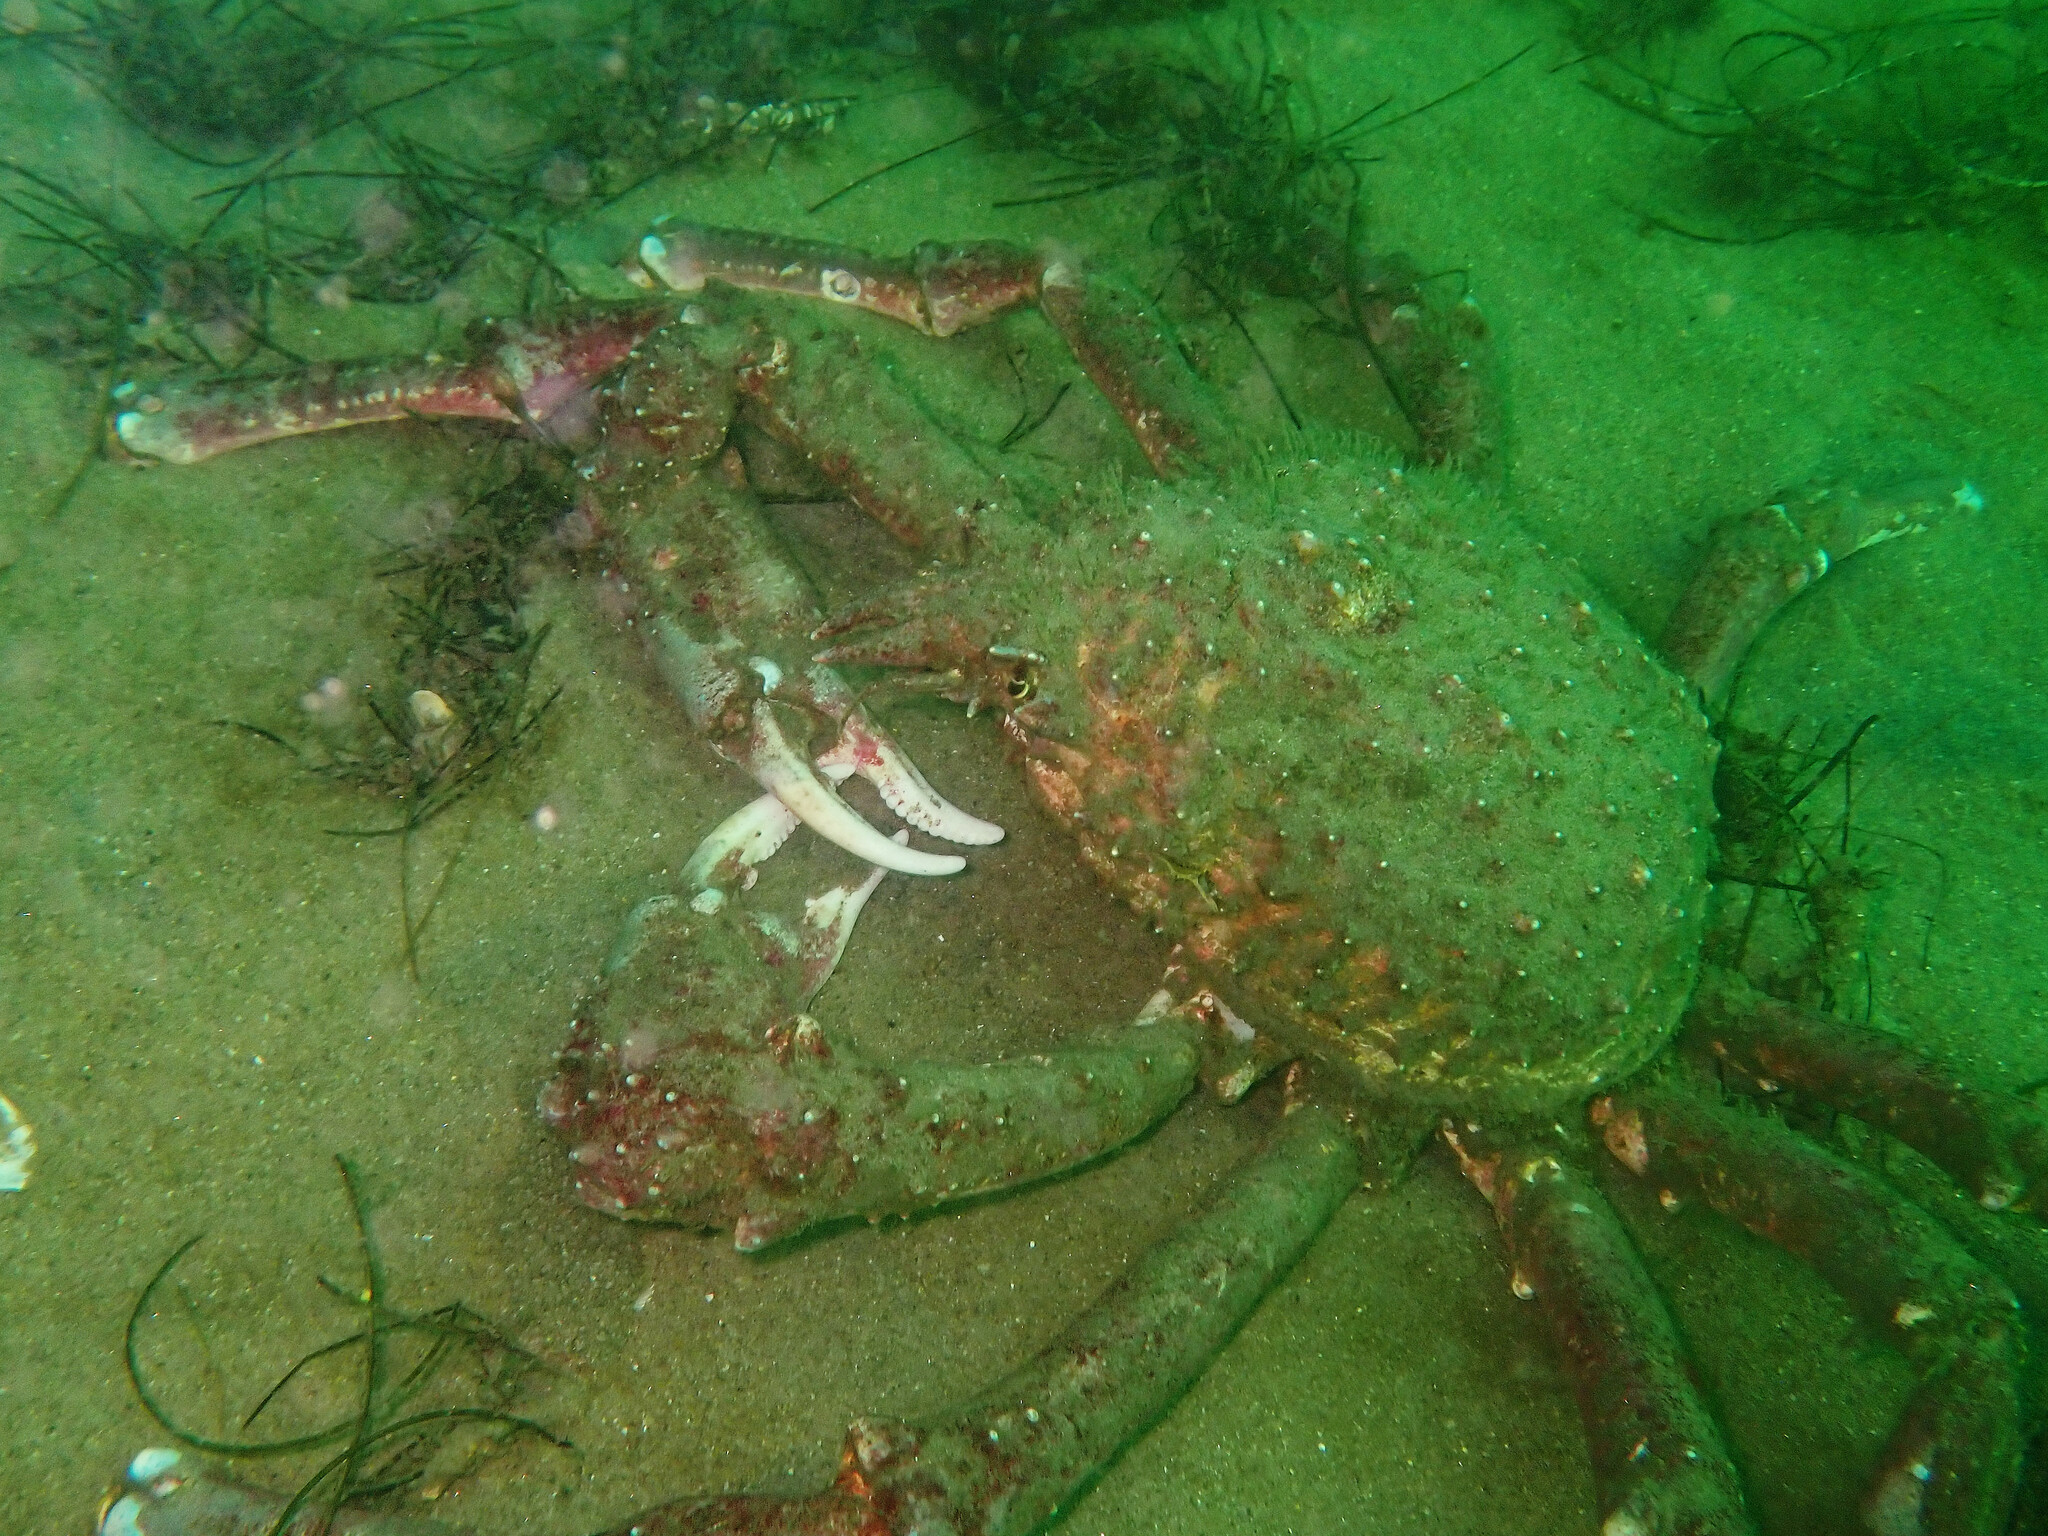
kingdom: Animalia
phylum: Arthropoda
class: Malacostraca
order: Decapoda
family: Epialtidae
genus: Loxorhynchus
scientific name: Loxorhynchus grandis
